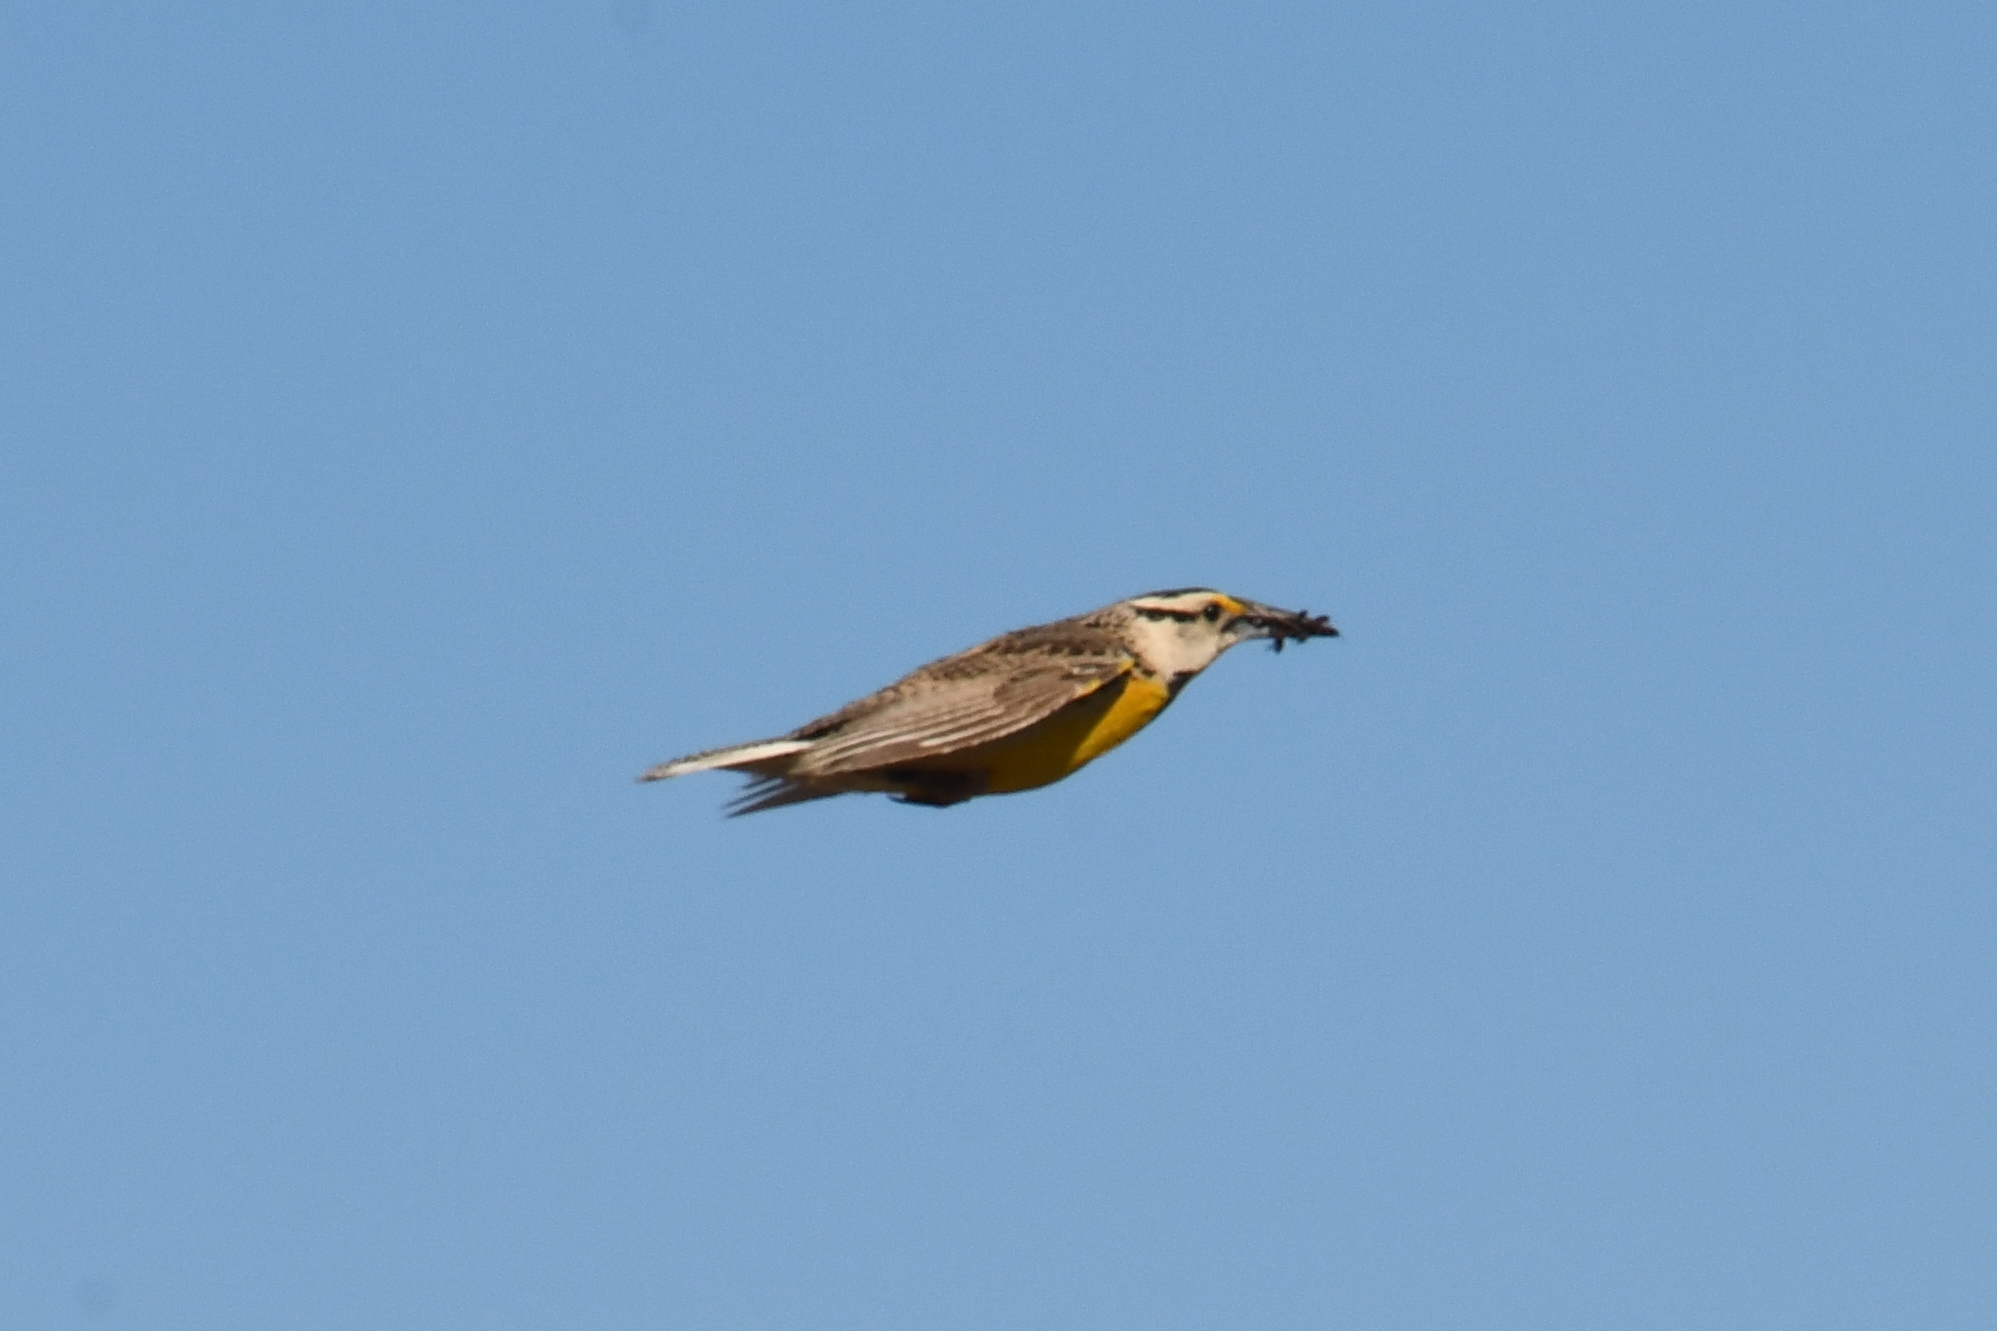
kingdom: Animalia
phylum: Chordata
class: Aves
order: Passeriformes
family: Icteridae
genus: Sturnella
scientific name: Sturnella lilianae
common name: Lilian's meadowlark
